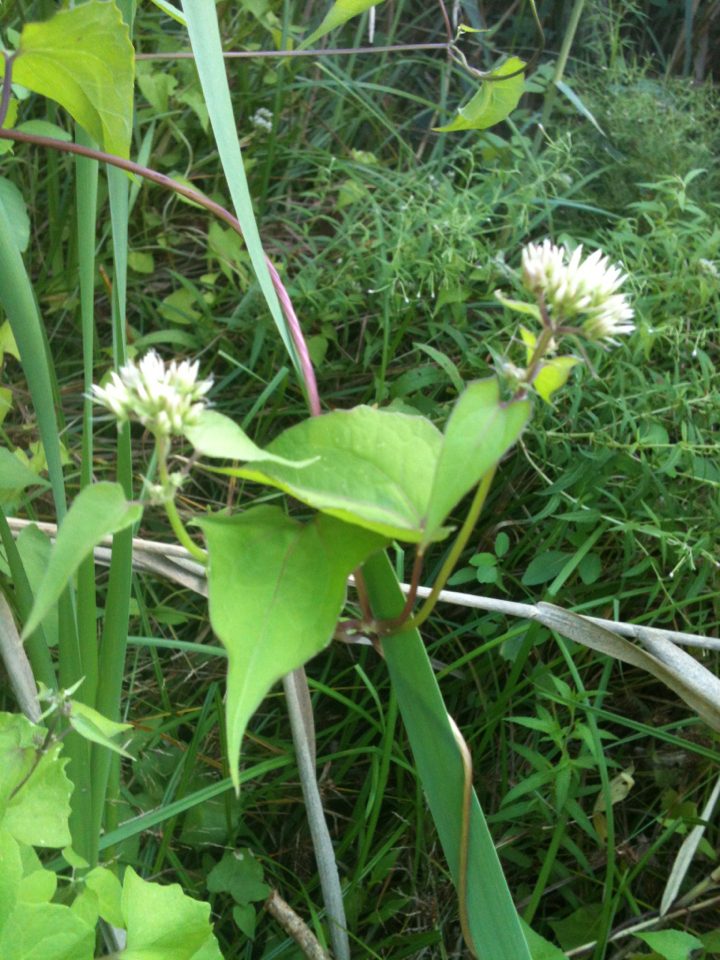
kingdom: Plantae
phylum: Tracheophyta
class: Magnoliopsida
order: Asterales
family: Asteraceae
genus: Mikania
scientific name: Mikania scandens
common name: Climbing hempvine
